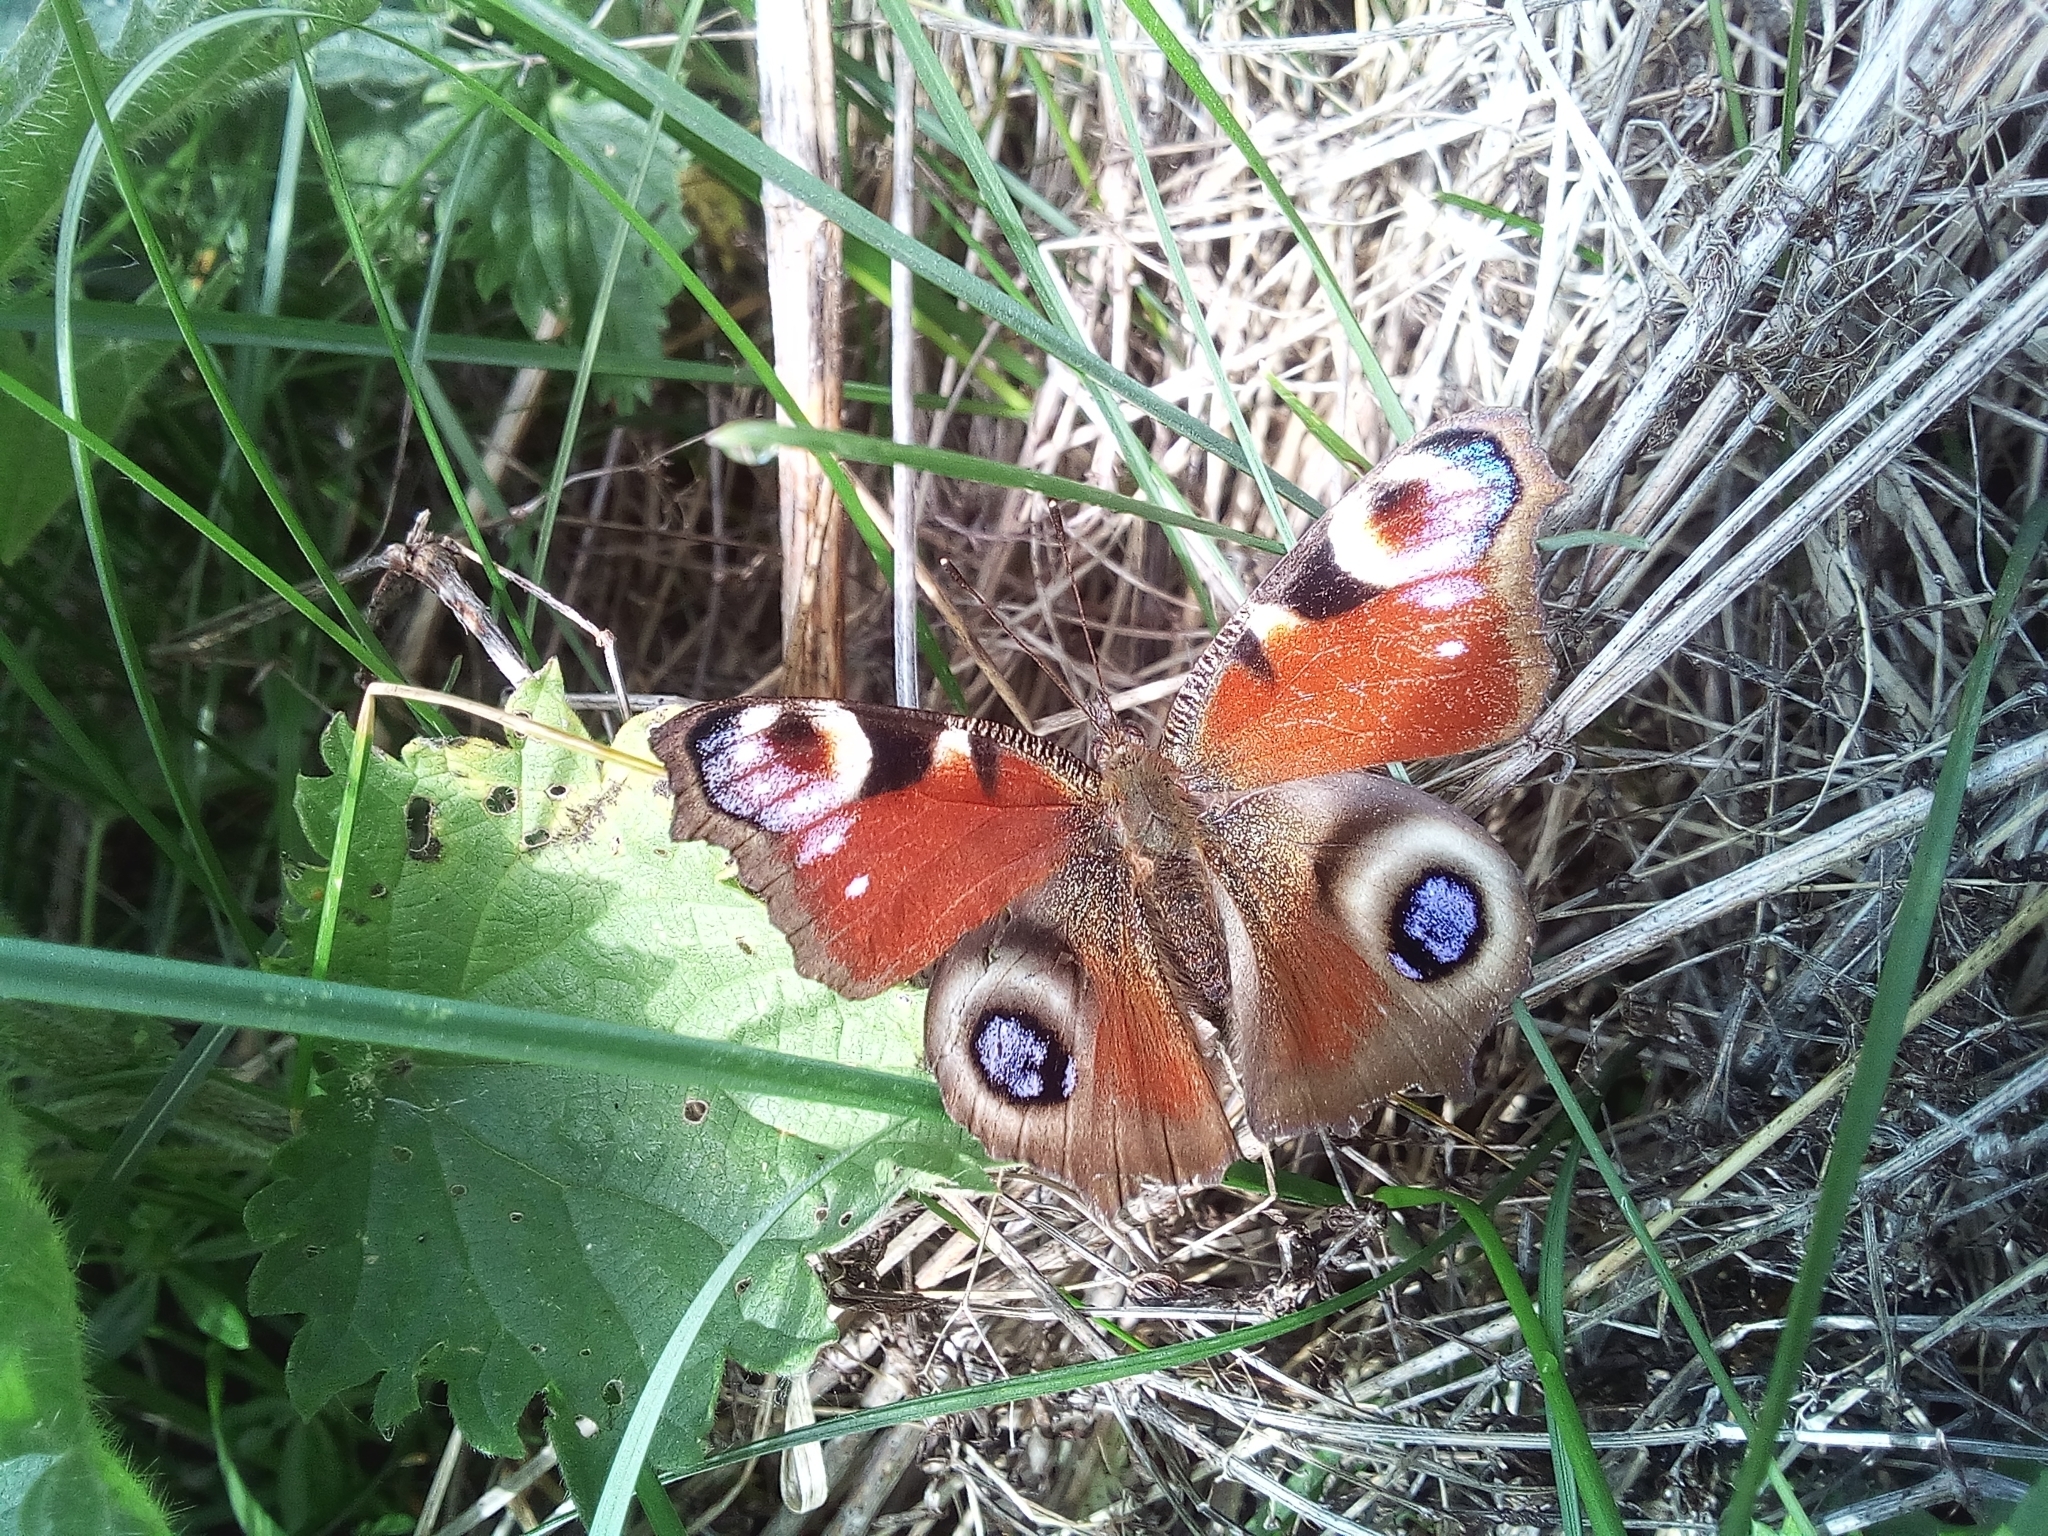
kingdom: Animalia
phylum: Arthropoda
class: Insecta
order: Lepidoptera
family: Nymphalidae
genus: Aglais
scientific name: Aglais io
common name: Peacock
